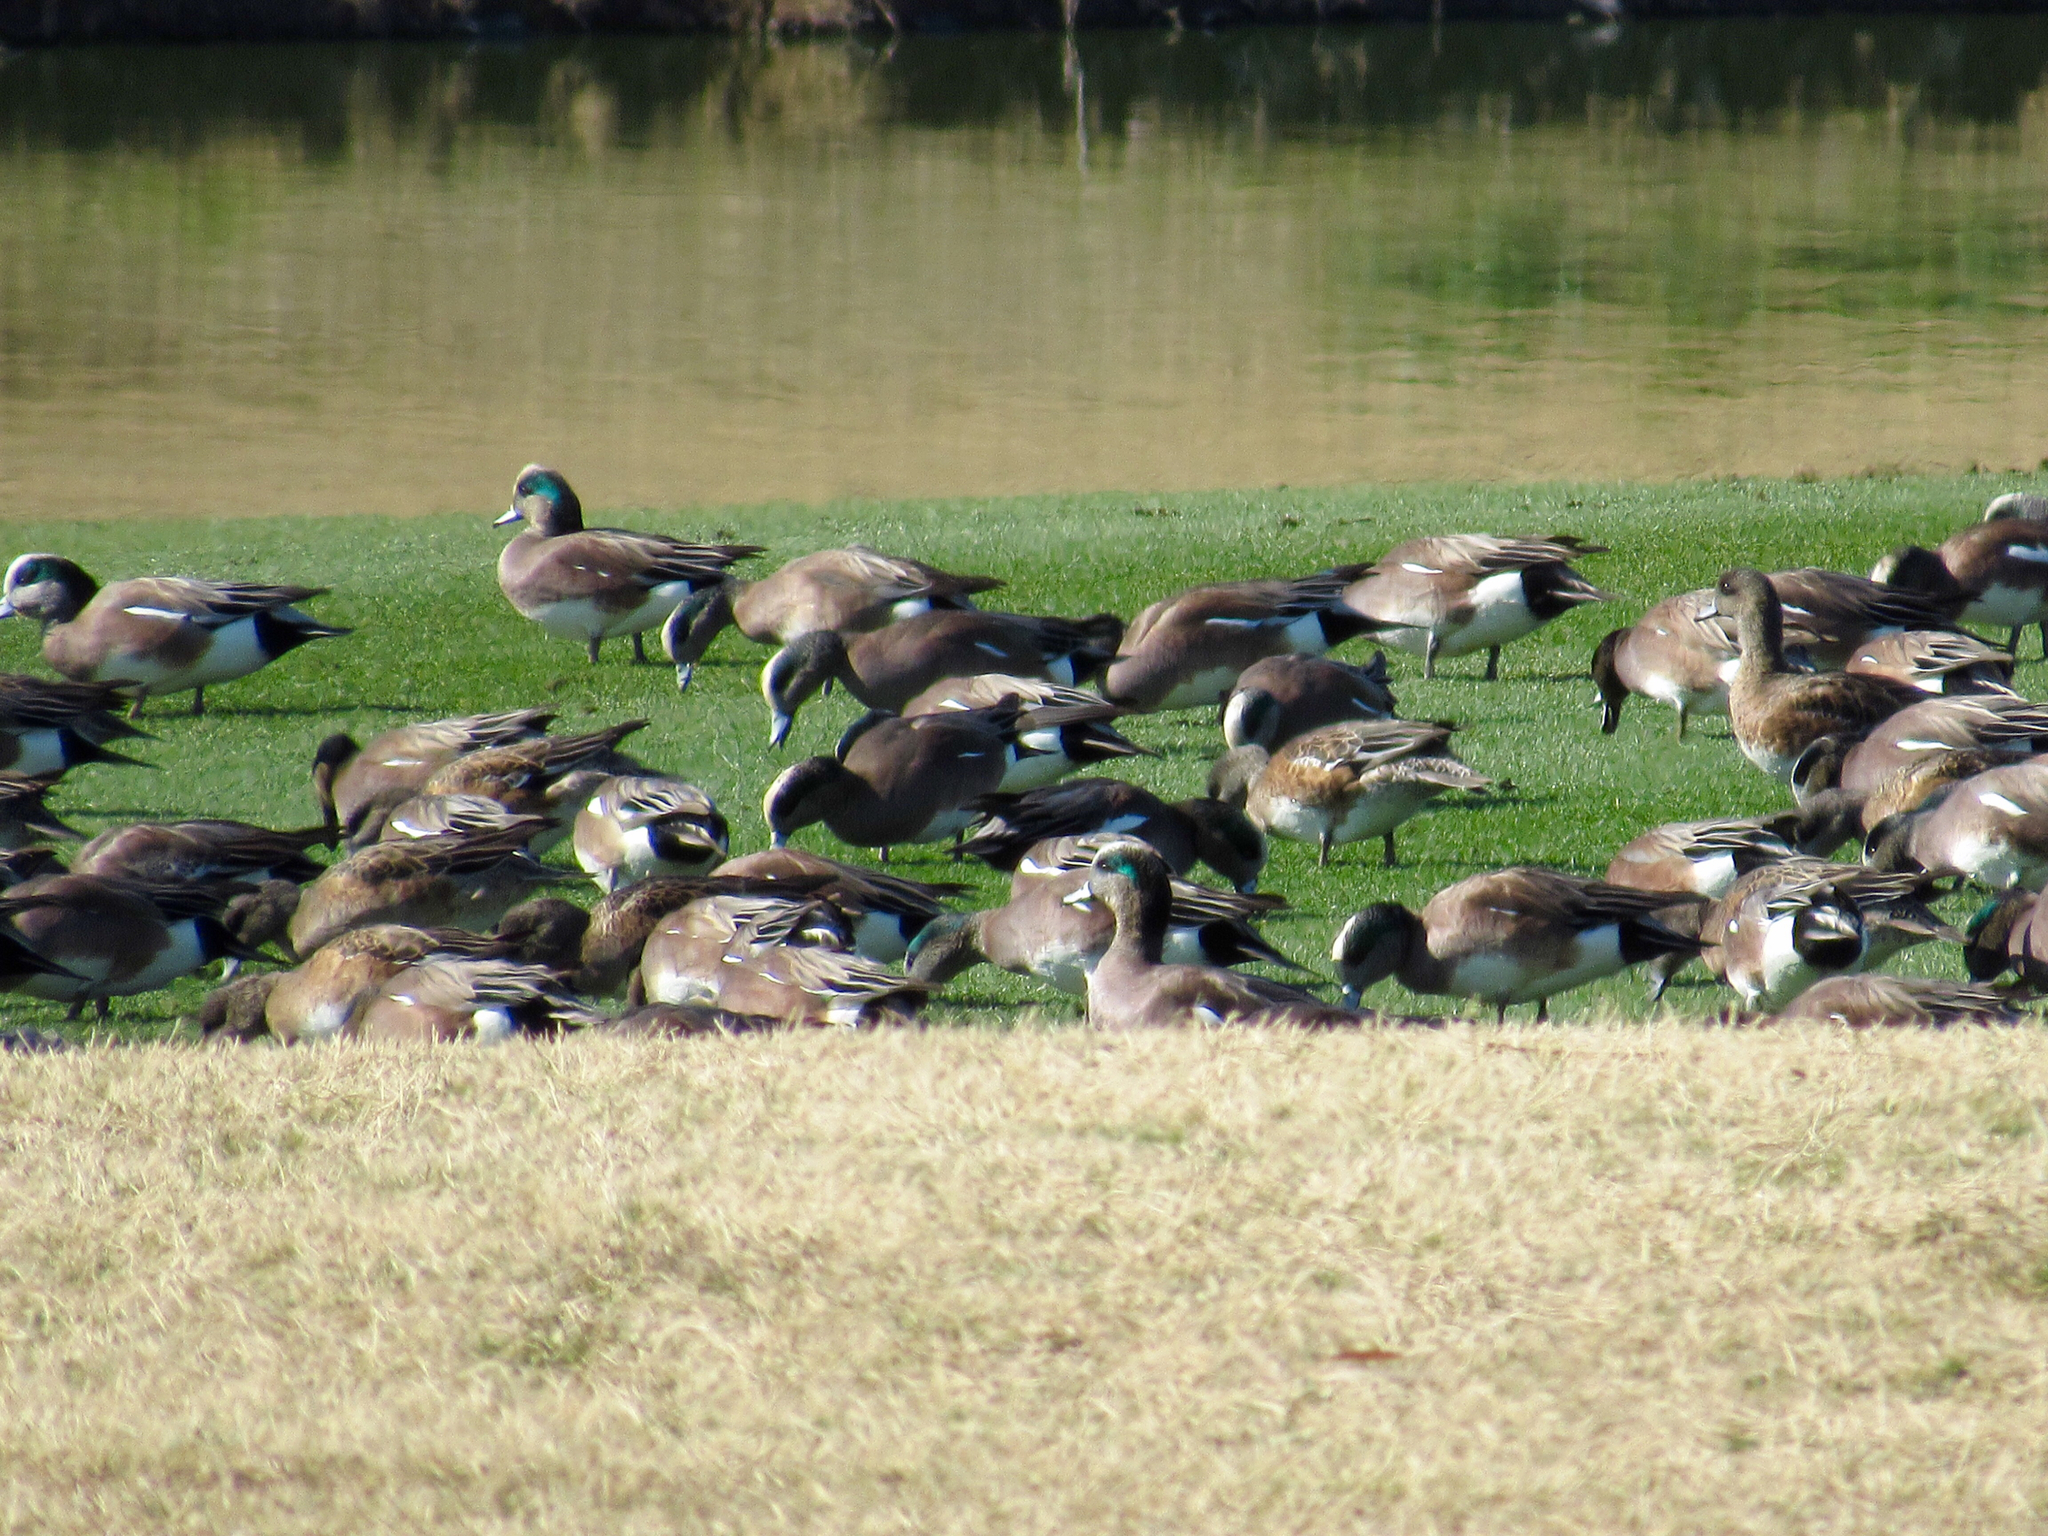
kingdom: Animalia
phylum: Chordata
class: Aves
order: Anseriformes
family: Anatidae
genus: Mareca
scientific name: Mareca americana
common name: American wigeon
